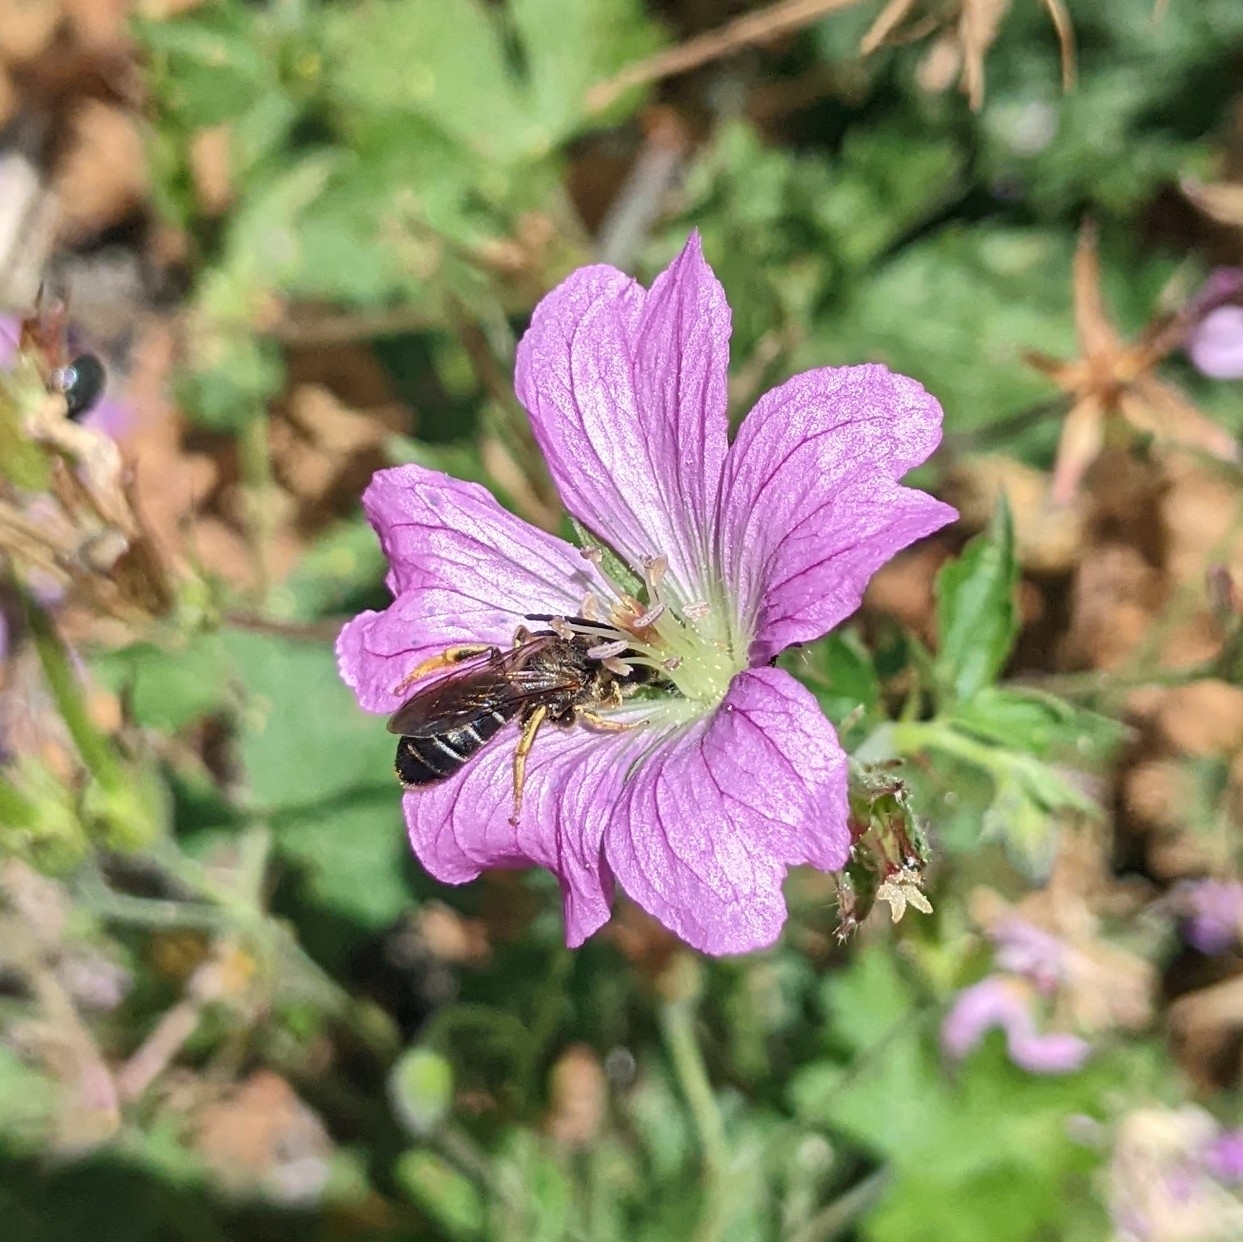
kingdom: Animalia
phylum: Arthropoda
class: Insecta
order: Hymenoptera
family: Halictidae
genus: Halictus
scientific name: Halictus rubicundus
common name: Orange-legged furrow bee
